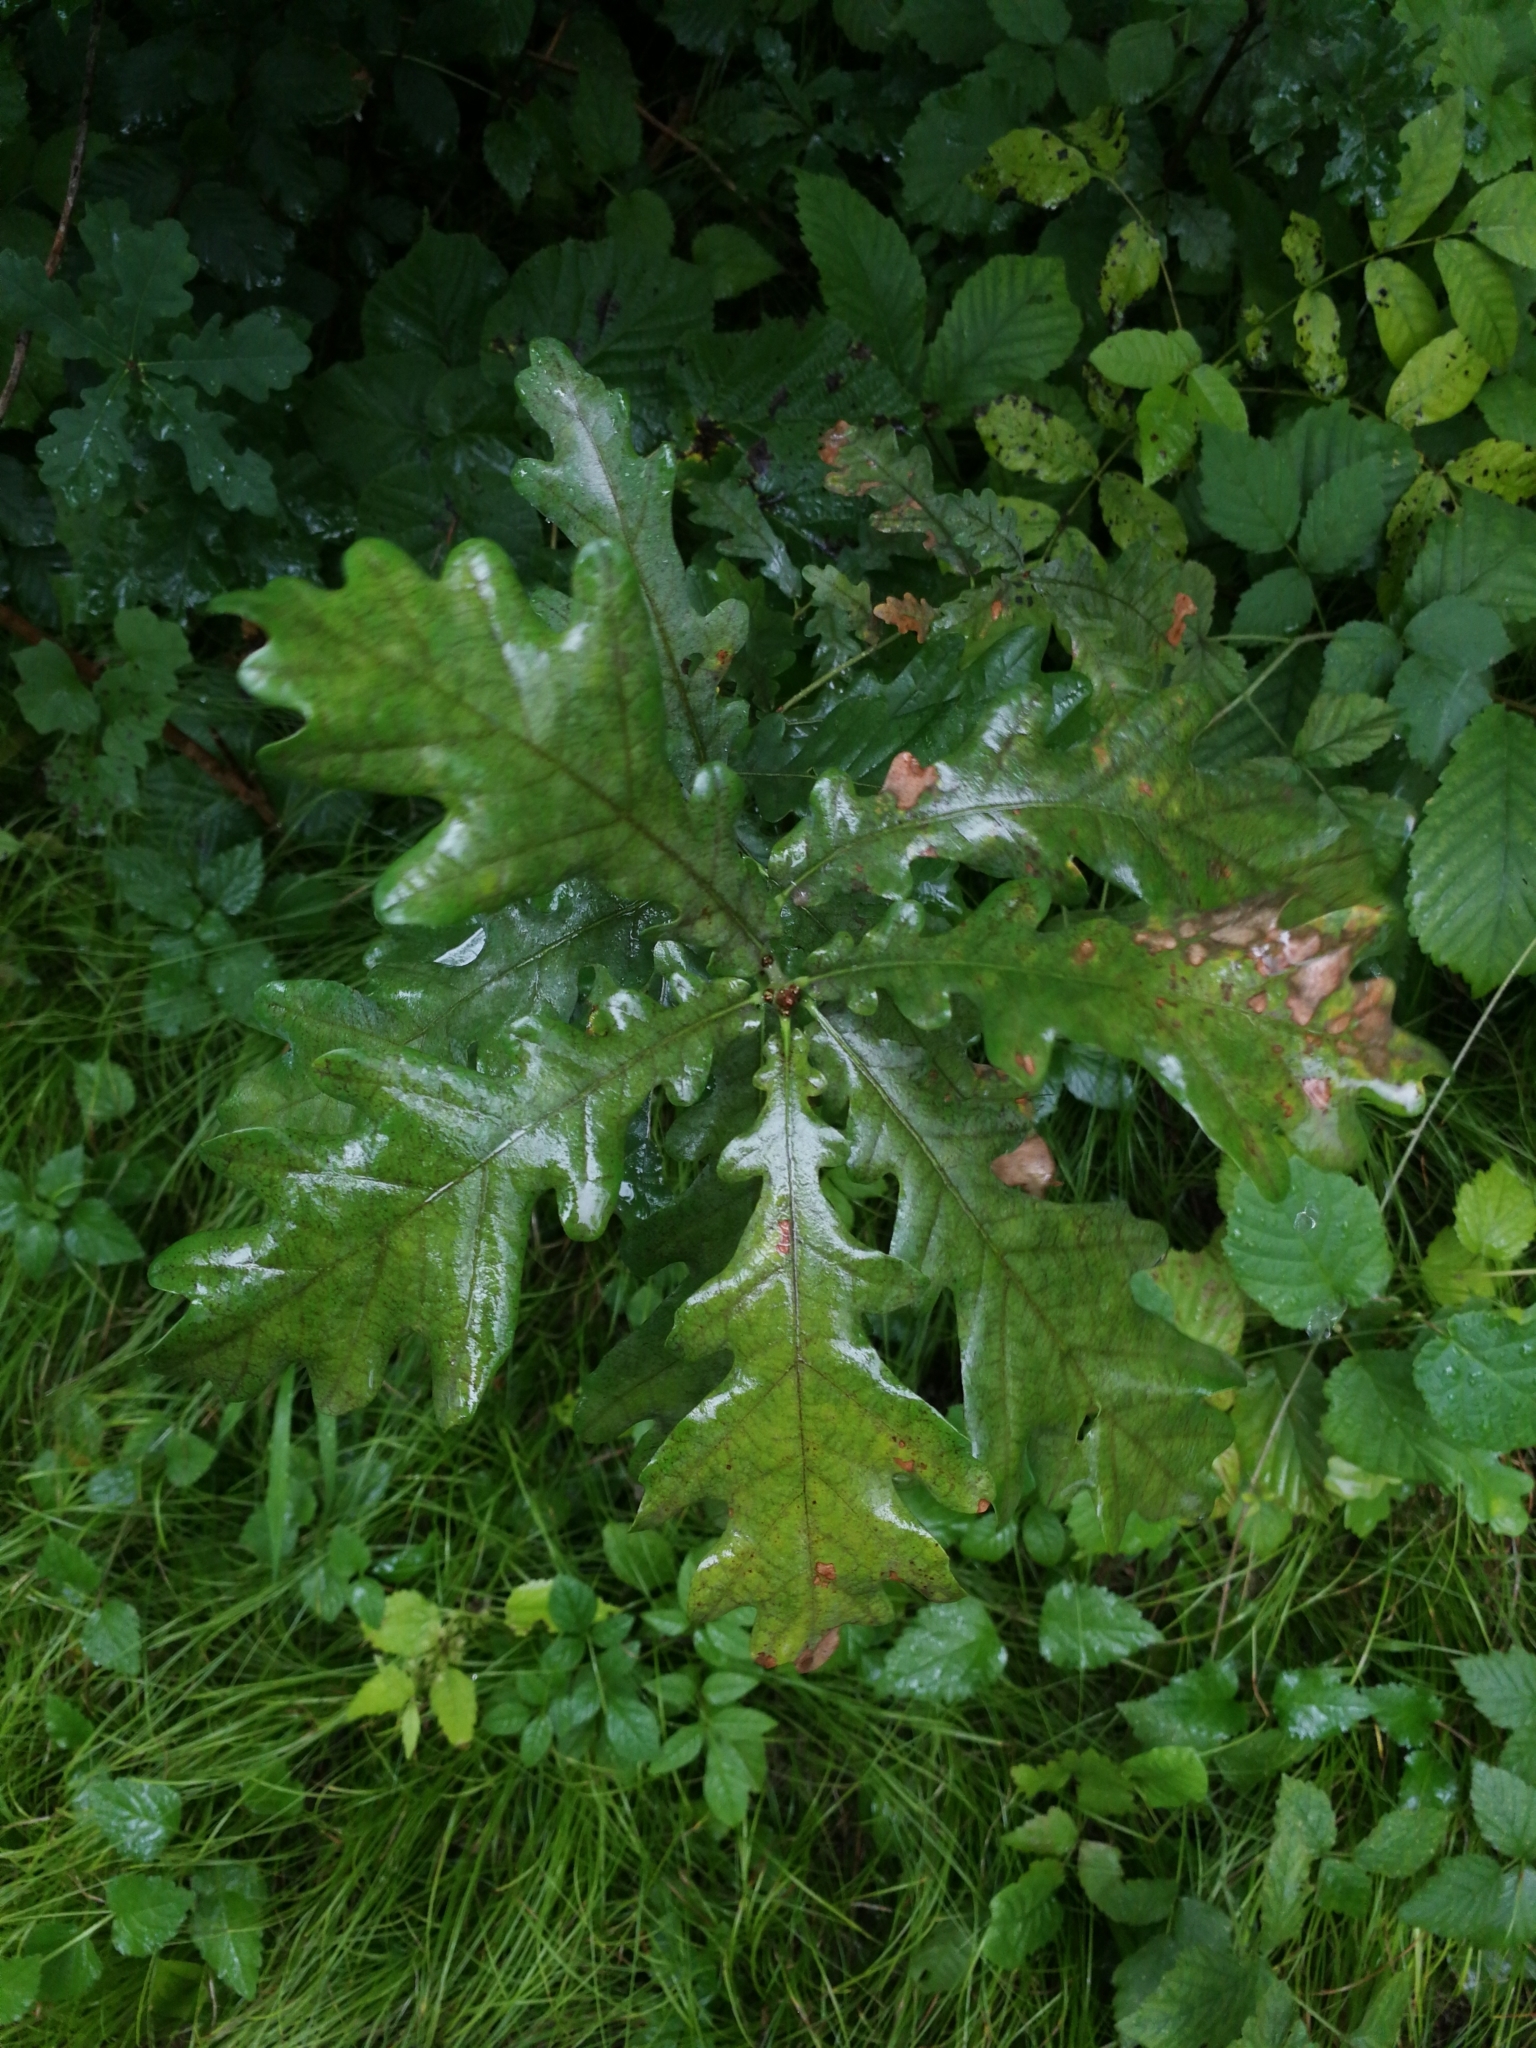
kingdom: Plantae
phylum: Tracheophyta
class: Magnoliopsida
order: Fagales
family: Fagaceae
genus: Quercus
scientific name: Quercus robur
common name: Pedunculate oak
